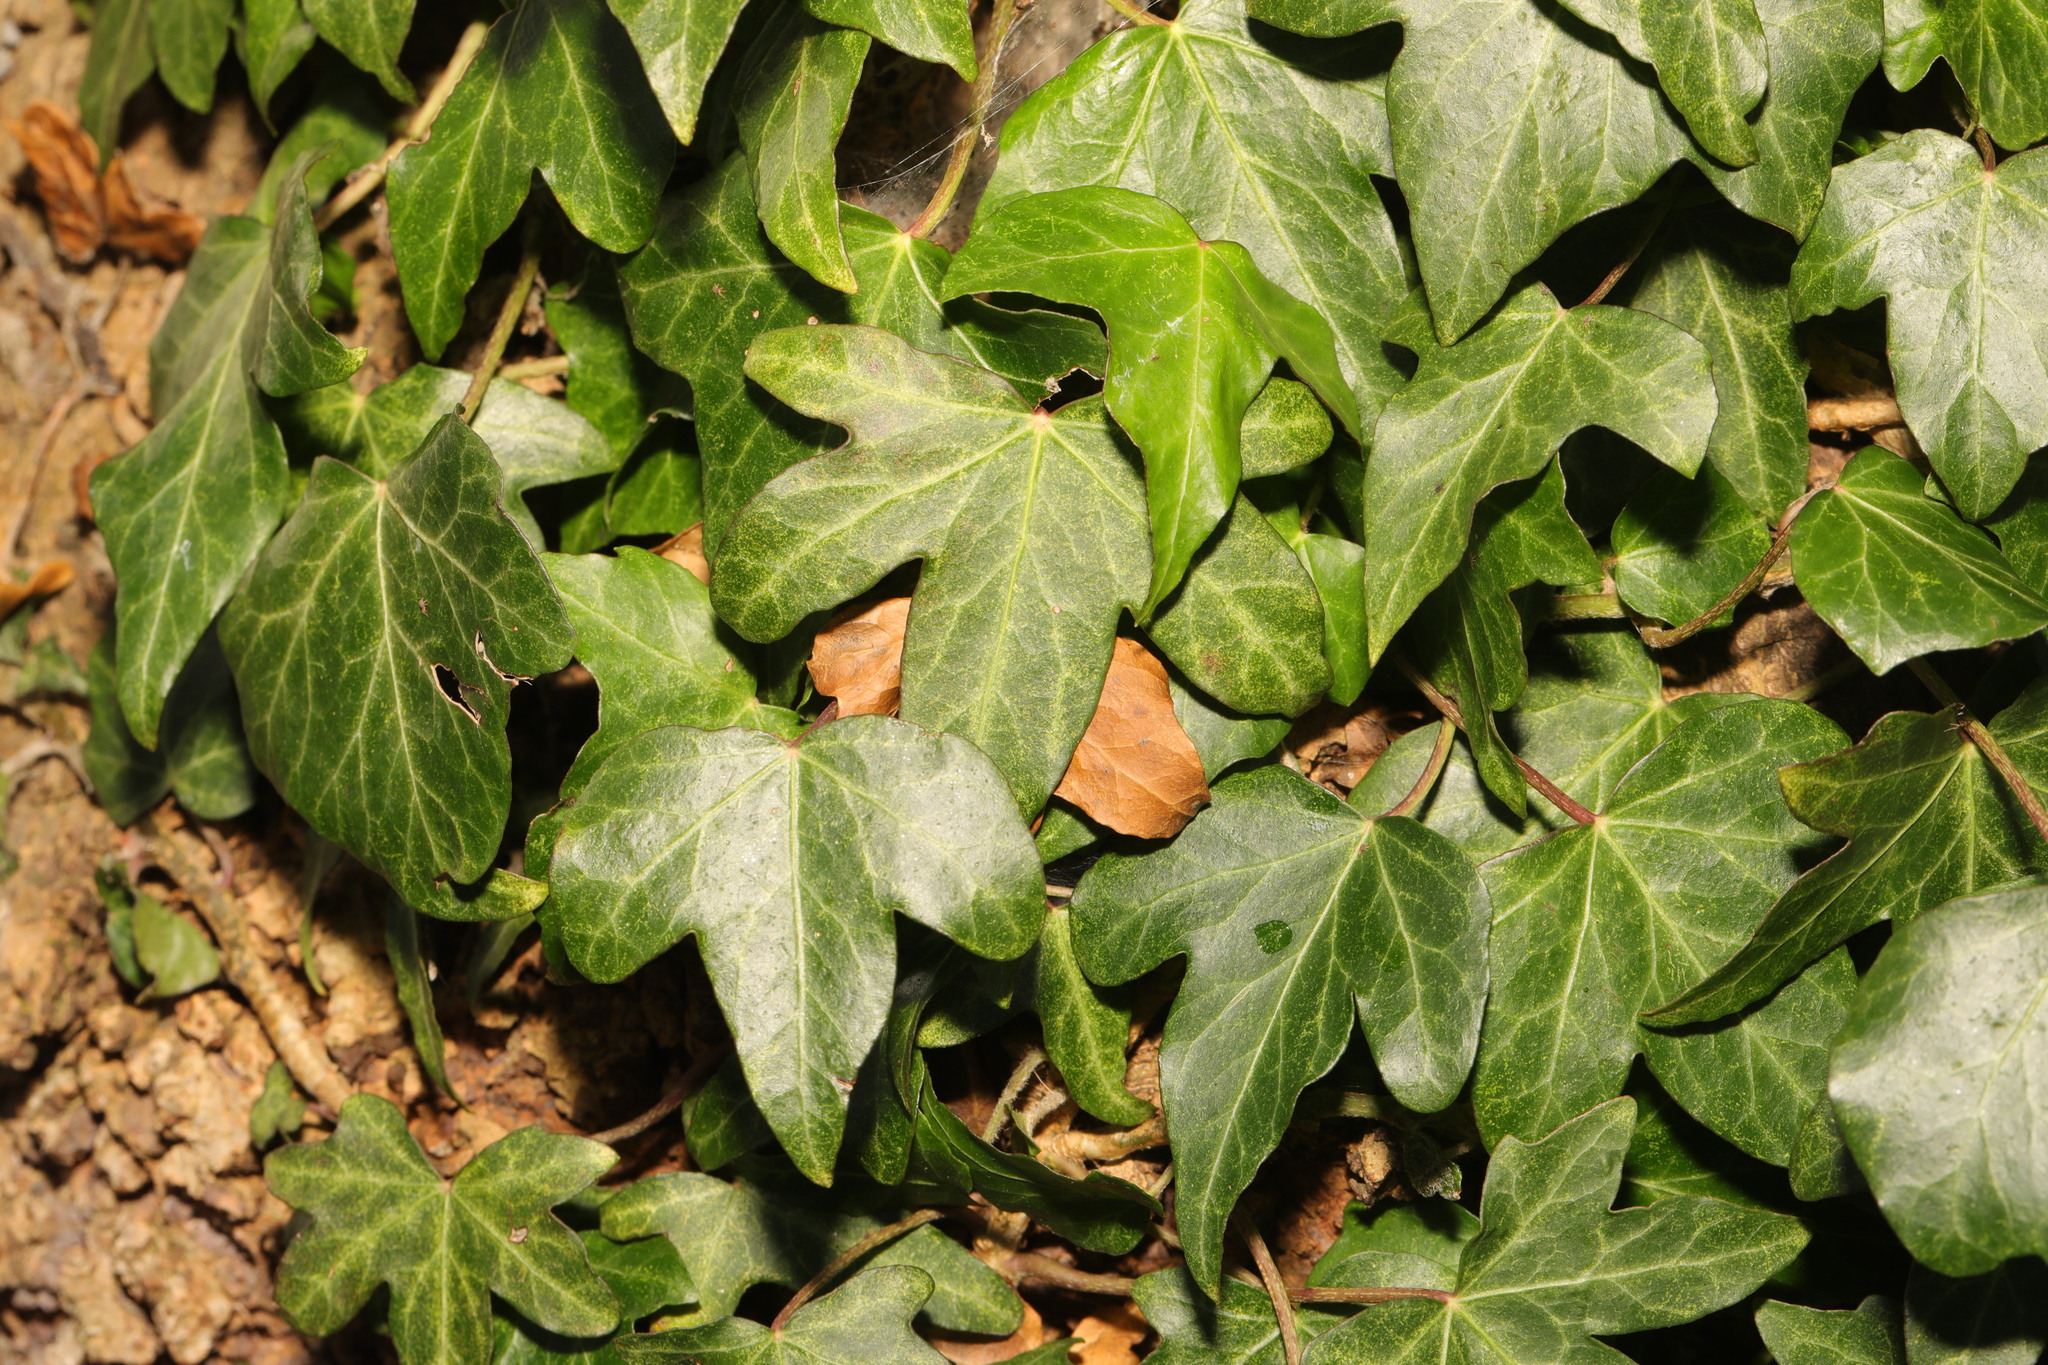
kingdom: Plantae
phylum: Tracheophyta
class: Magnoliopsida
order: Apiales
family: Araliaceae
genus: Hedera
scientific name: Hedera helix
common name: Ivy
